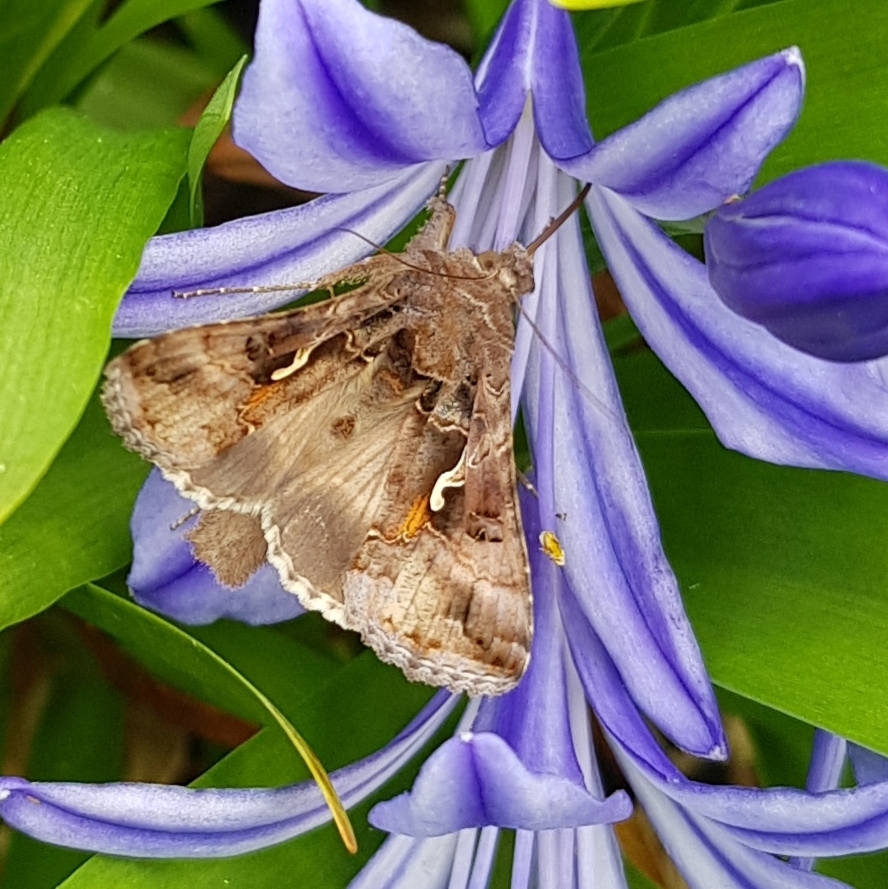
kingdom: Animalia
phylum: Arthropoda
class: Insecta
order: Lepidoptera
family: Noctuidae
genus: Autographa
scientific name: Autographa gamma
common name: Silver y
